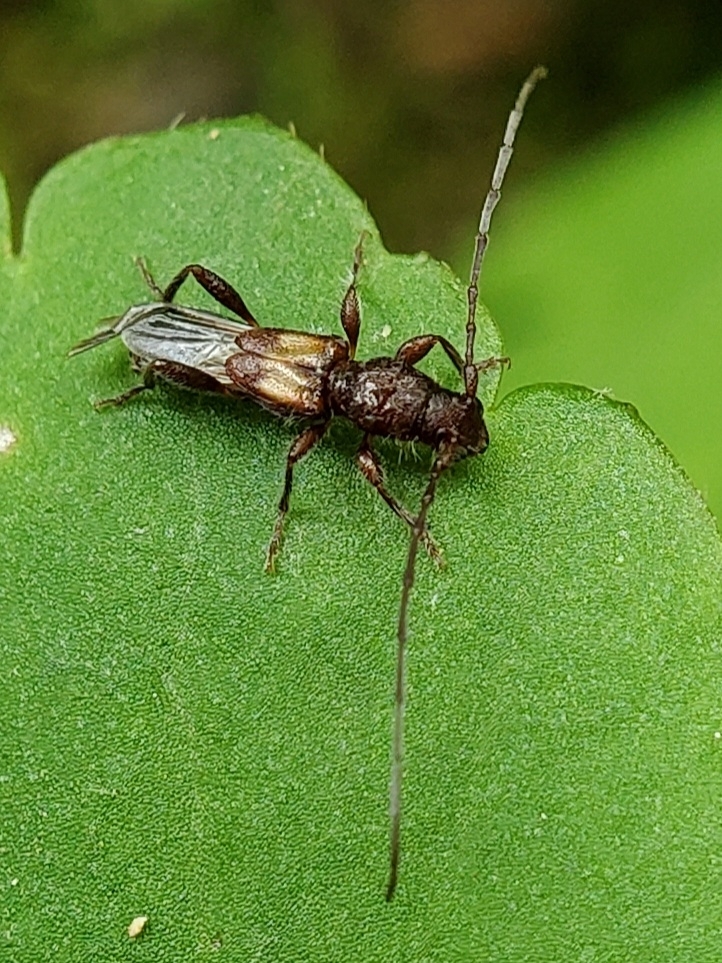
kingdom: Animalia
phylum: Arthropoda
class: Insecta
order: Coleoptera
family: Cerambycidae
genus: Molorchus
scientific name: Molorchus bimaculatus
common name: Bimaculate longhorn beetle
